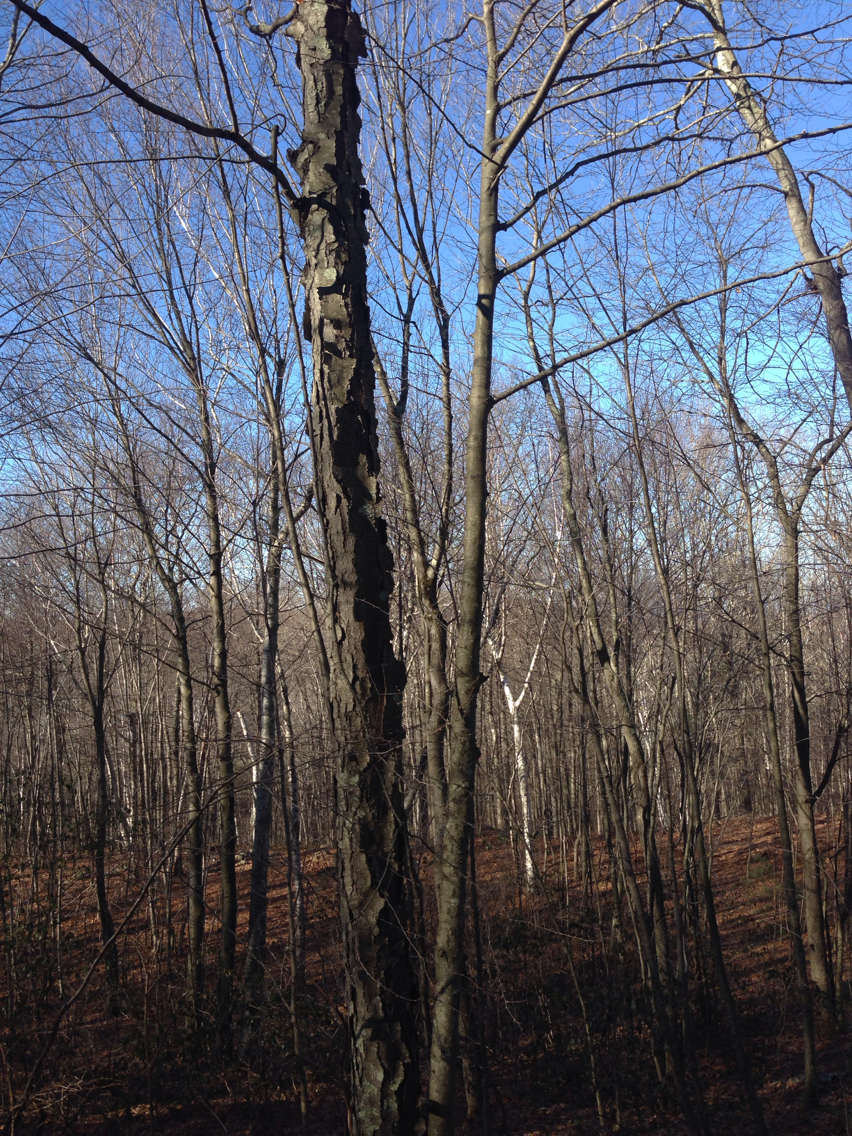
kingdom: Plantae
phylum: Tracheophyta
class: Magnoliopsida
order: Fagales
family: Betulaceae
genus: Betula
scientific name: Betula lenta
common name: Black birch
